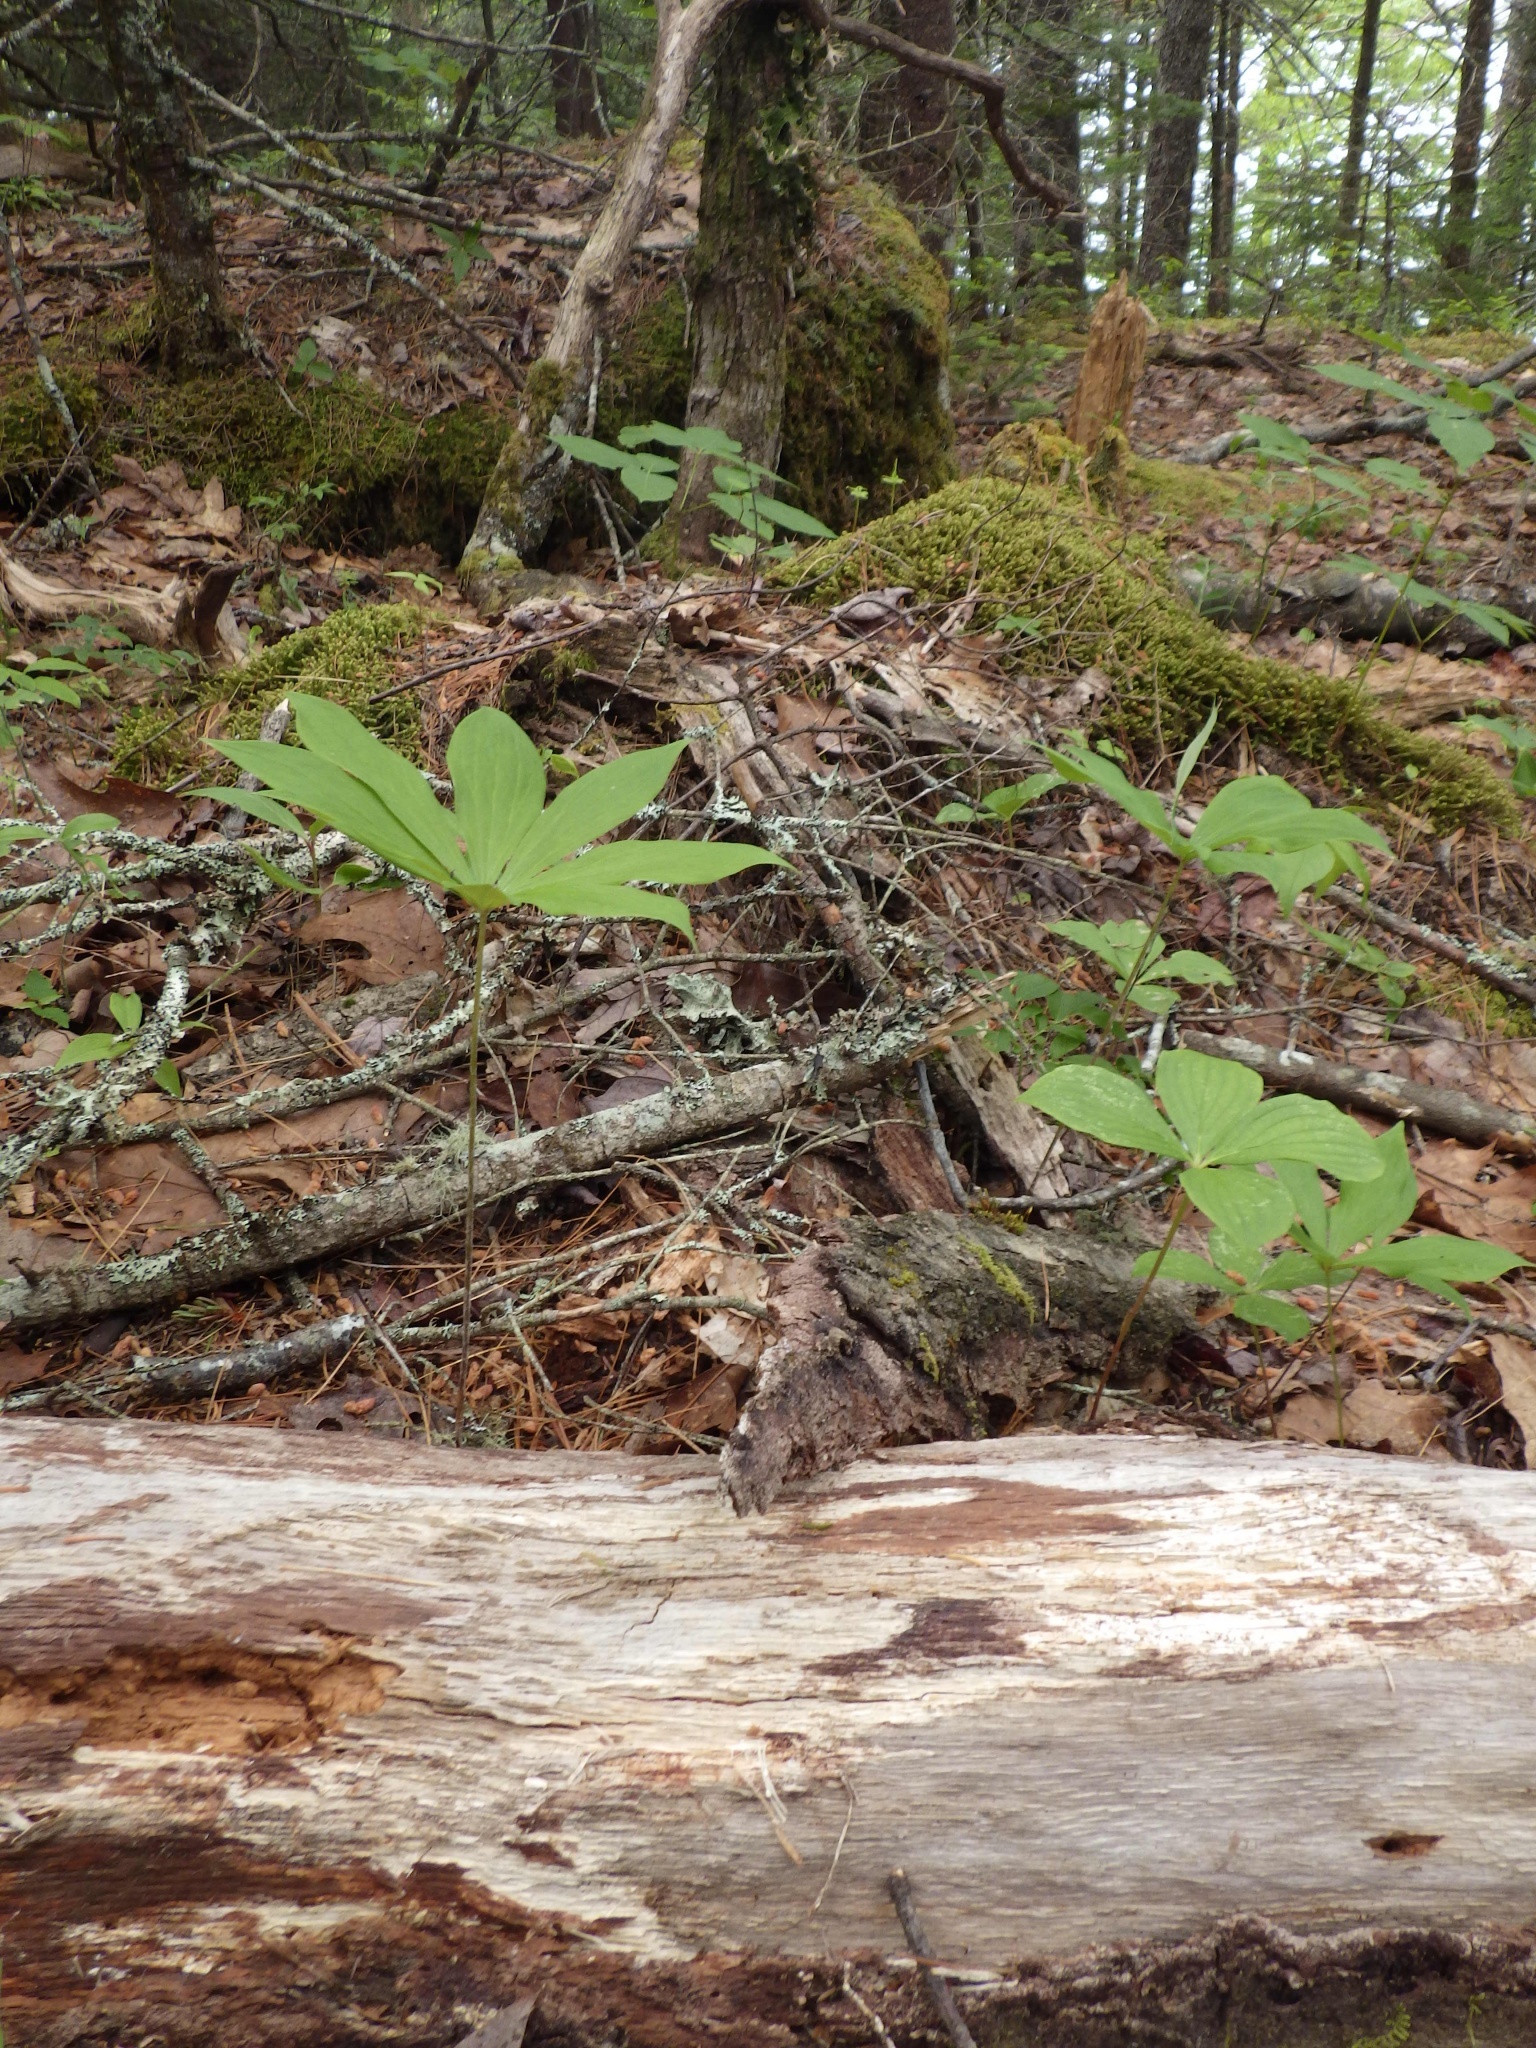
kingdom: Plantae
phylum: Tracheophyta
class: Liliopsida
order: Liliales
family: Liliaceae
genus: Medeola
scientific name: Medeola virginiana
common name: Indian cucumber-root
